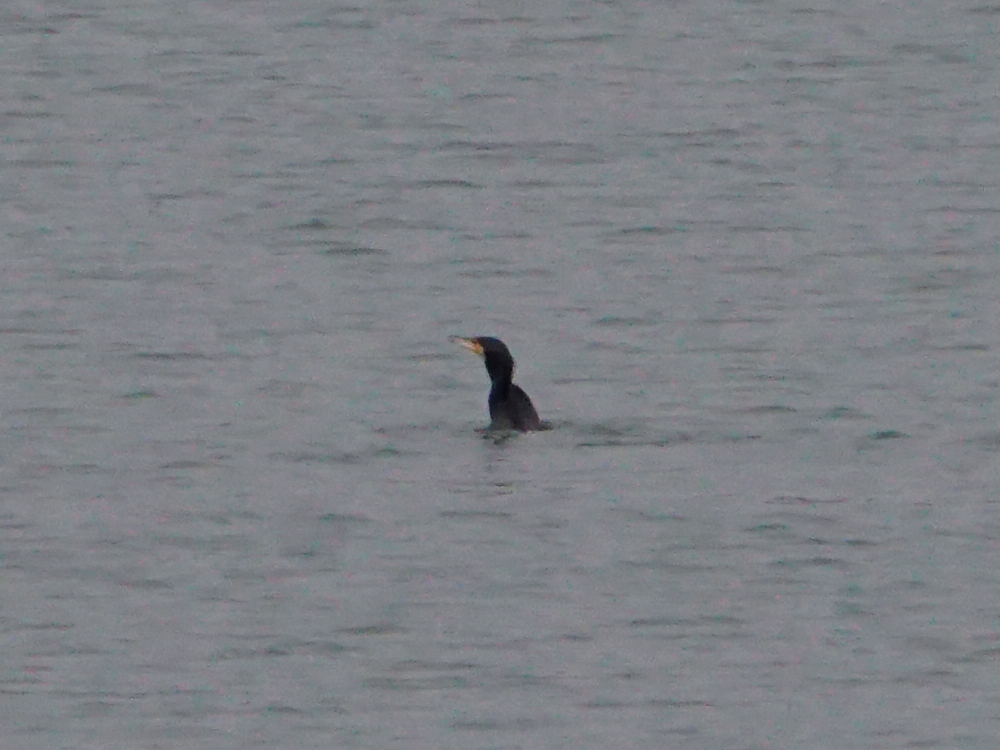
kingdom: Animalia
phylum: Chordata
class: Aves
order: Suliformes
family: Phalacrocoracidae
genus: Phalacrocorax
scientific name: Phalacrocorax carbo
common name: Great cormorant
